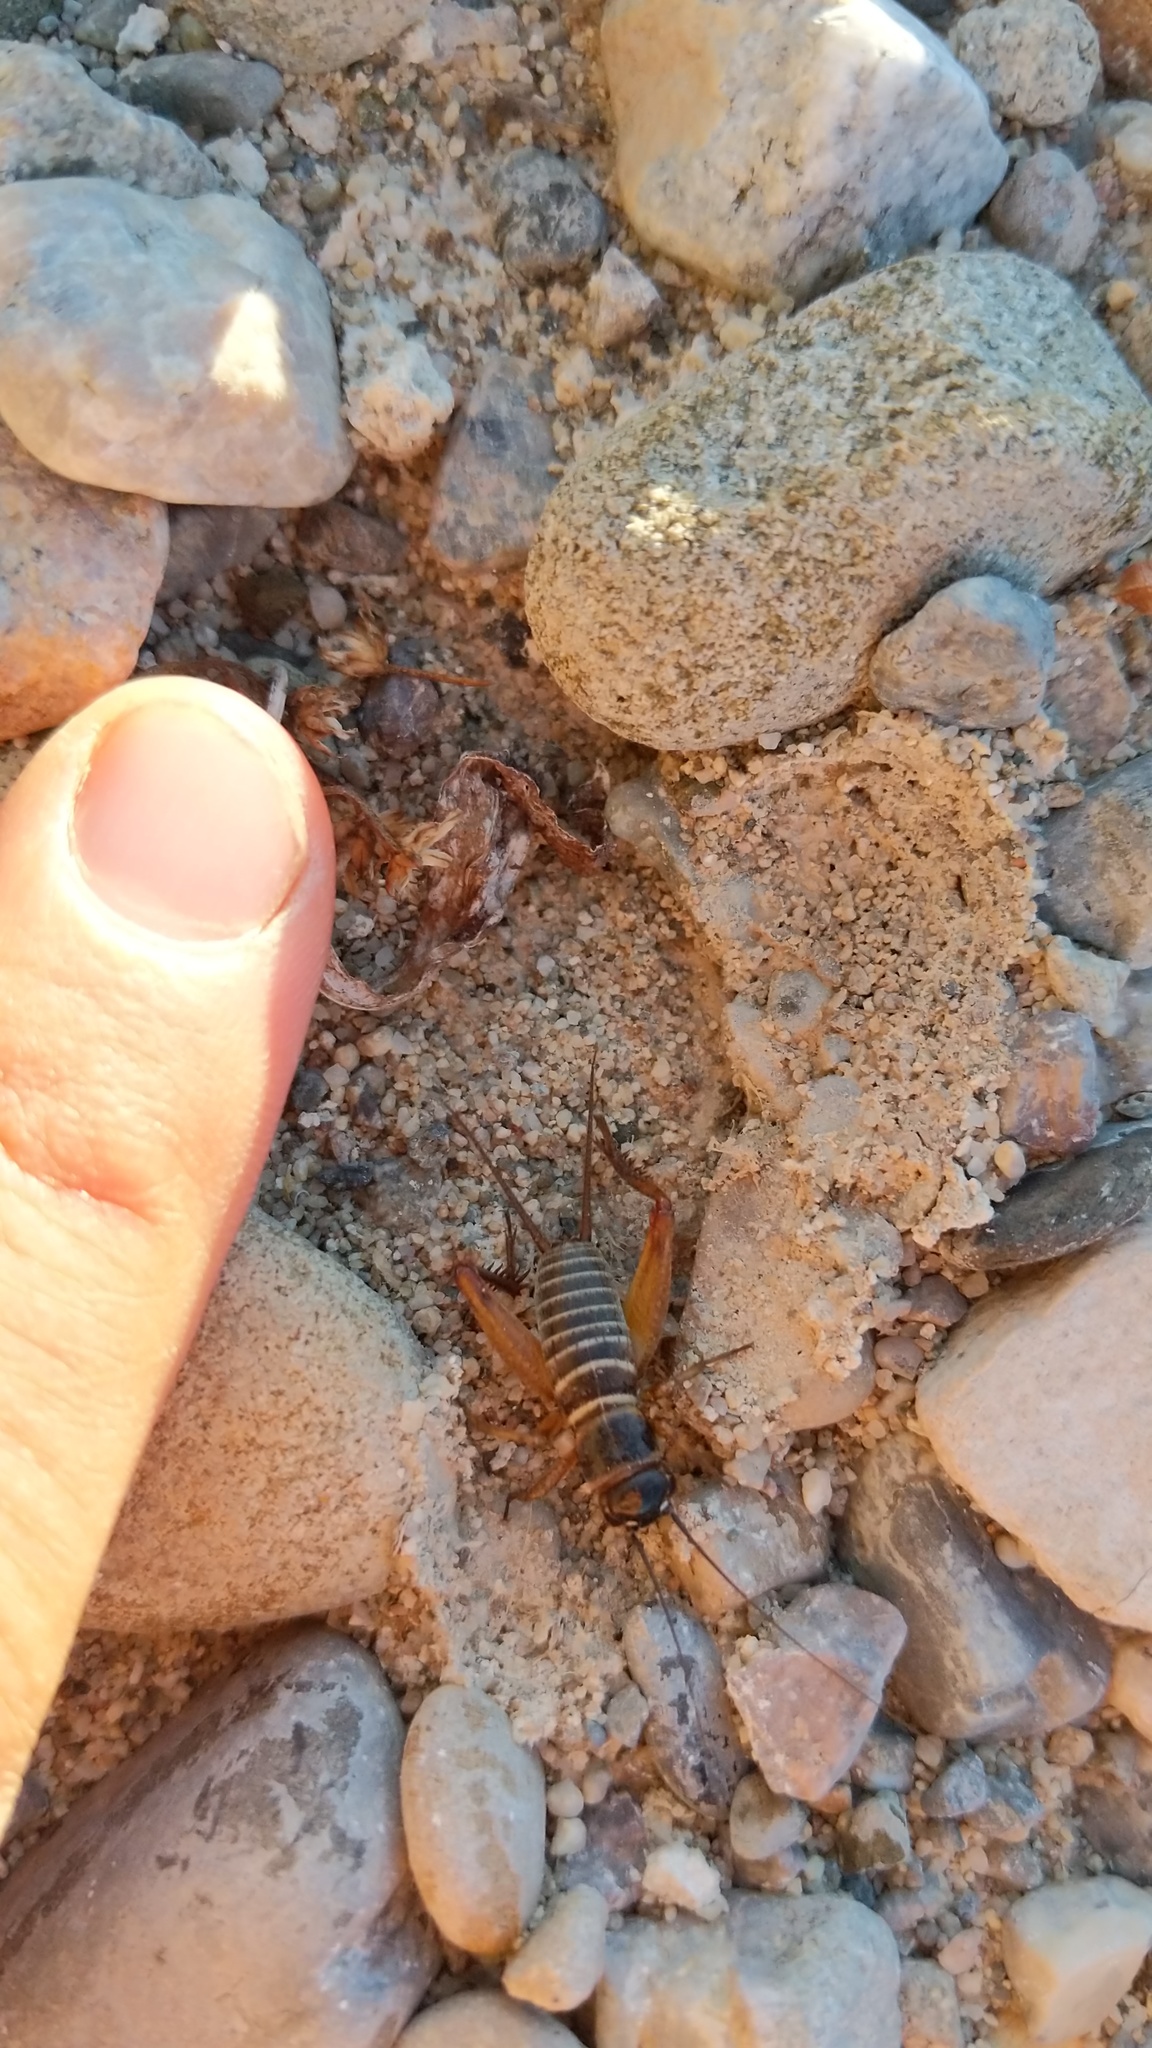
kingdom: Animalia
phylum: Arthropoda
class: Insecta
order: Orthoptera
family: Gryllidae
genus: Gryllus
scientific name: Gryllus
